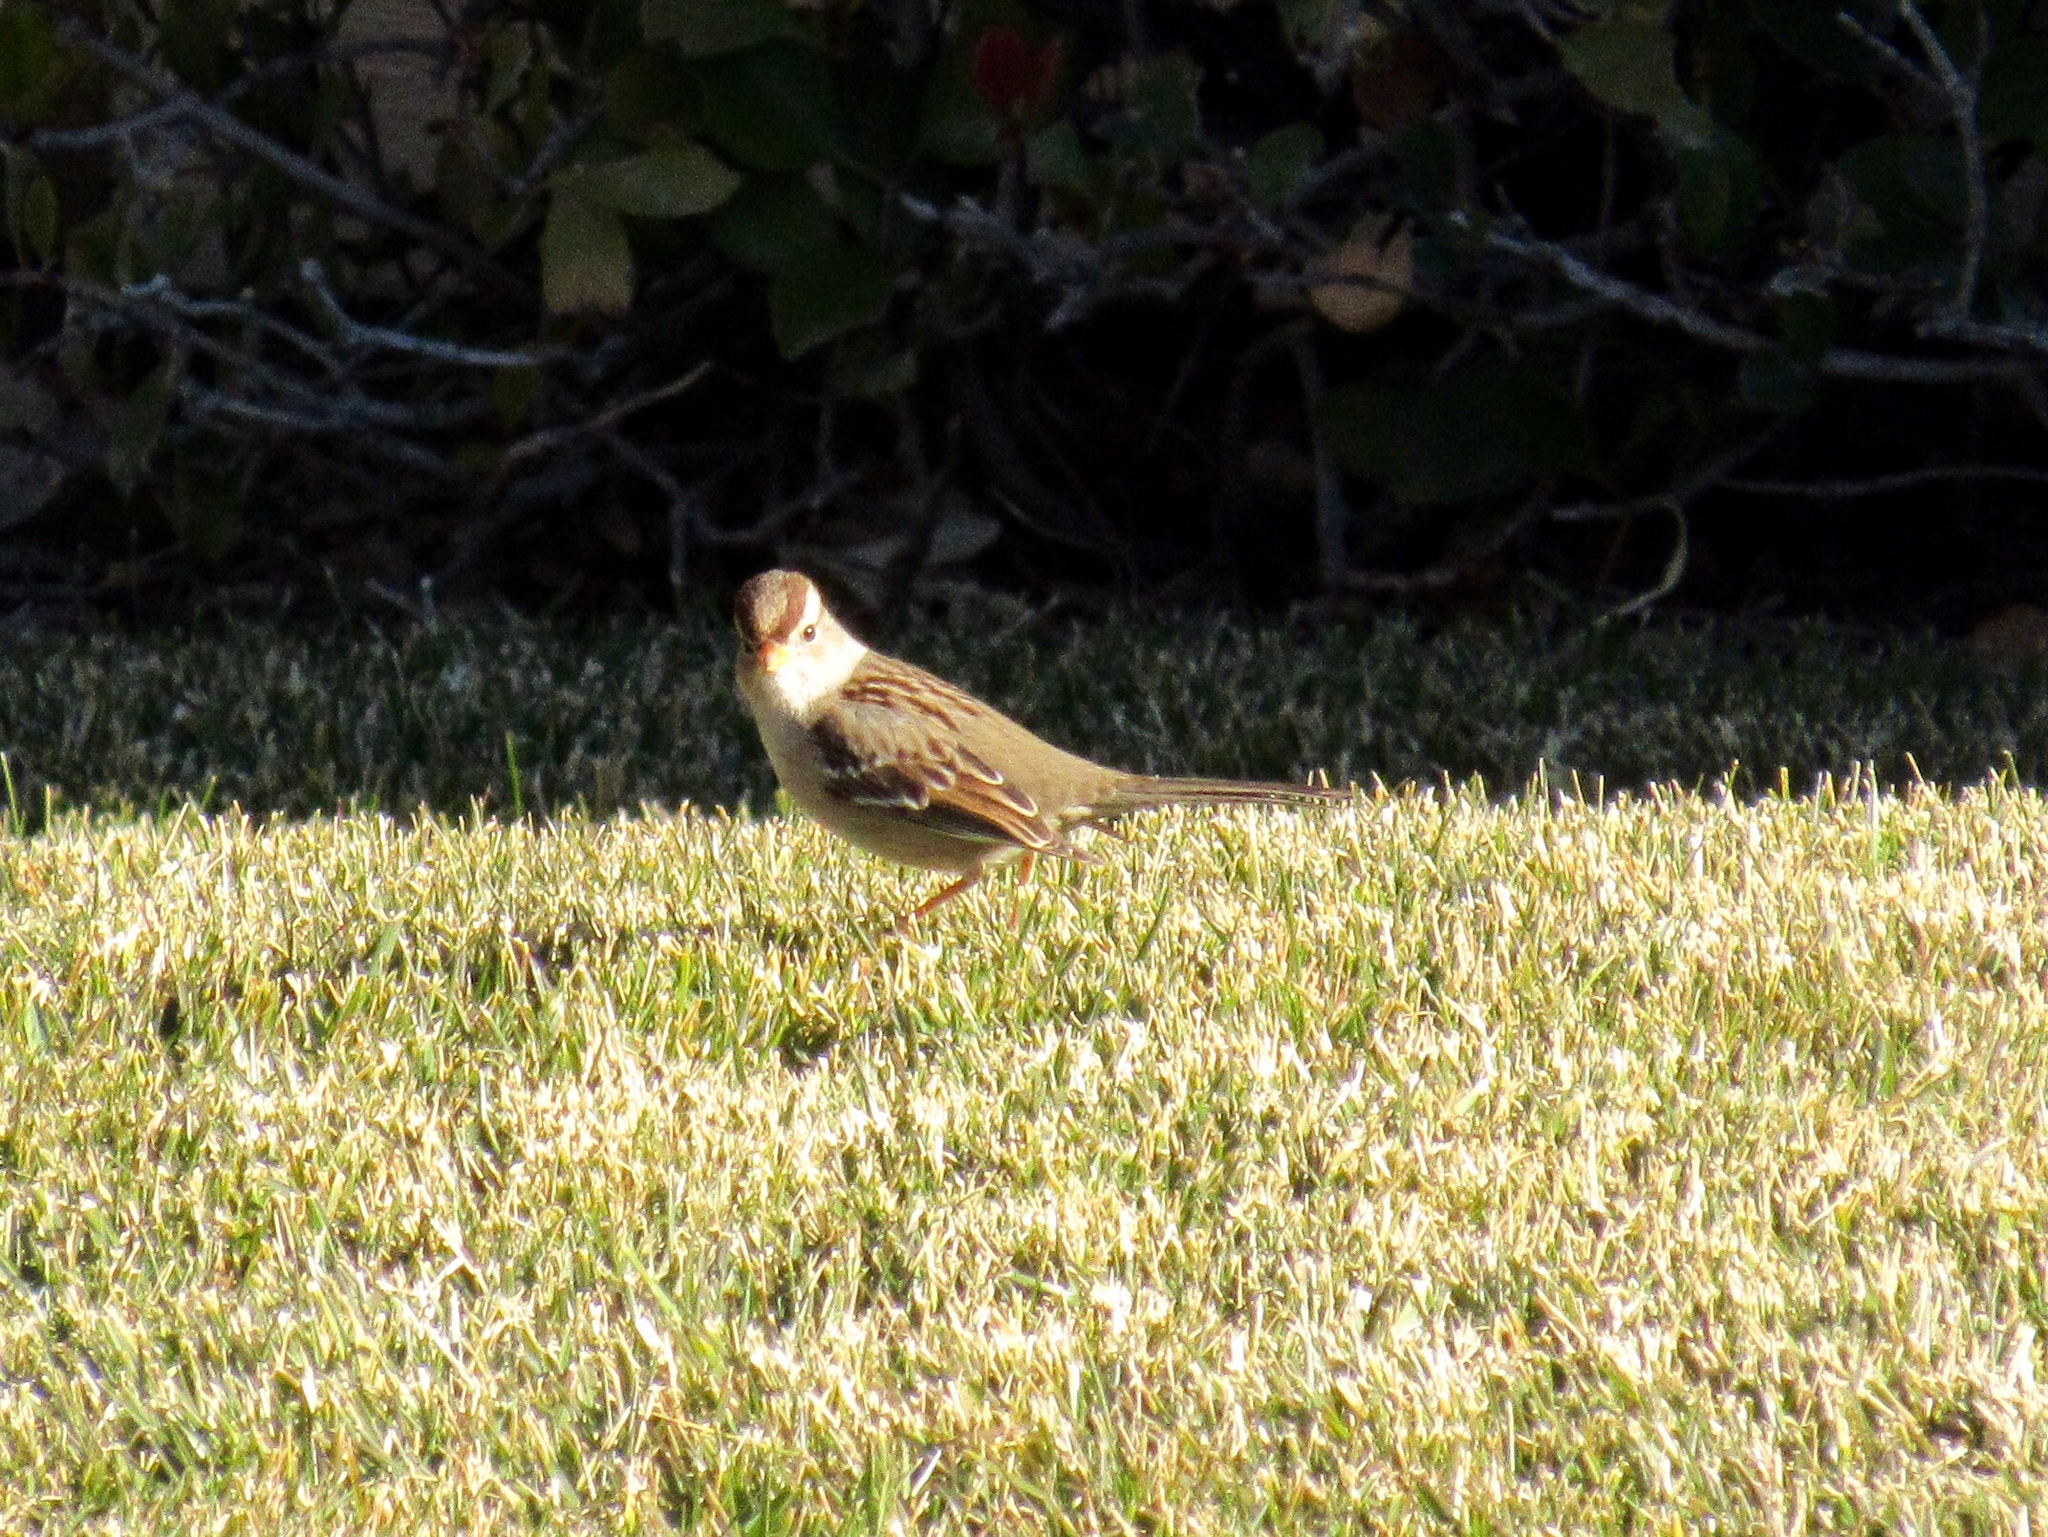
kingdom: Animalia
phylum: Chordata
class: Aves
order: Passeriformes
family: Passerellidae
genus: Zonotrichia
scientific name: Zonotrichia leucophrys
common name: White-crowned sparrow
